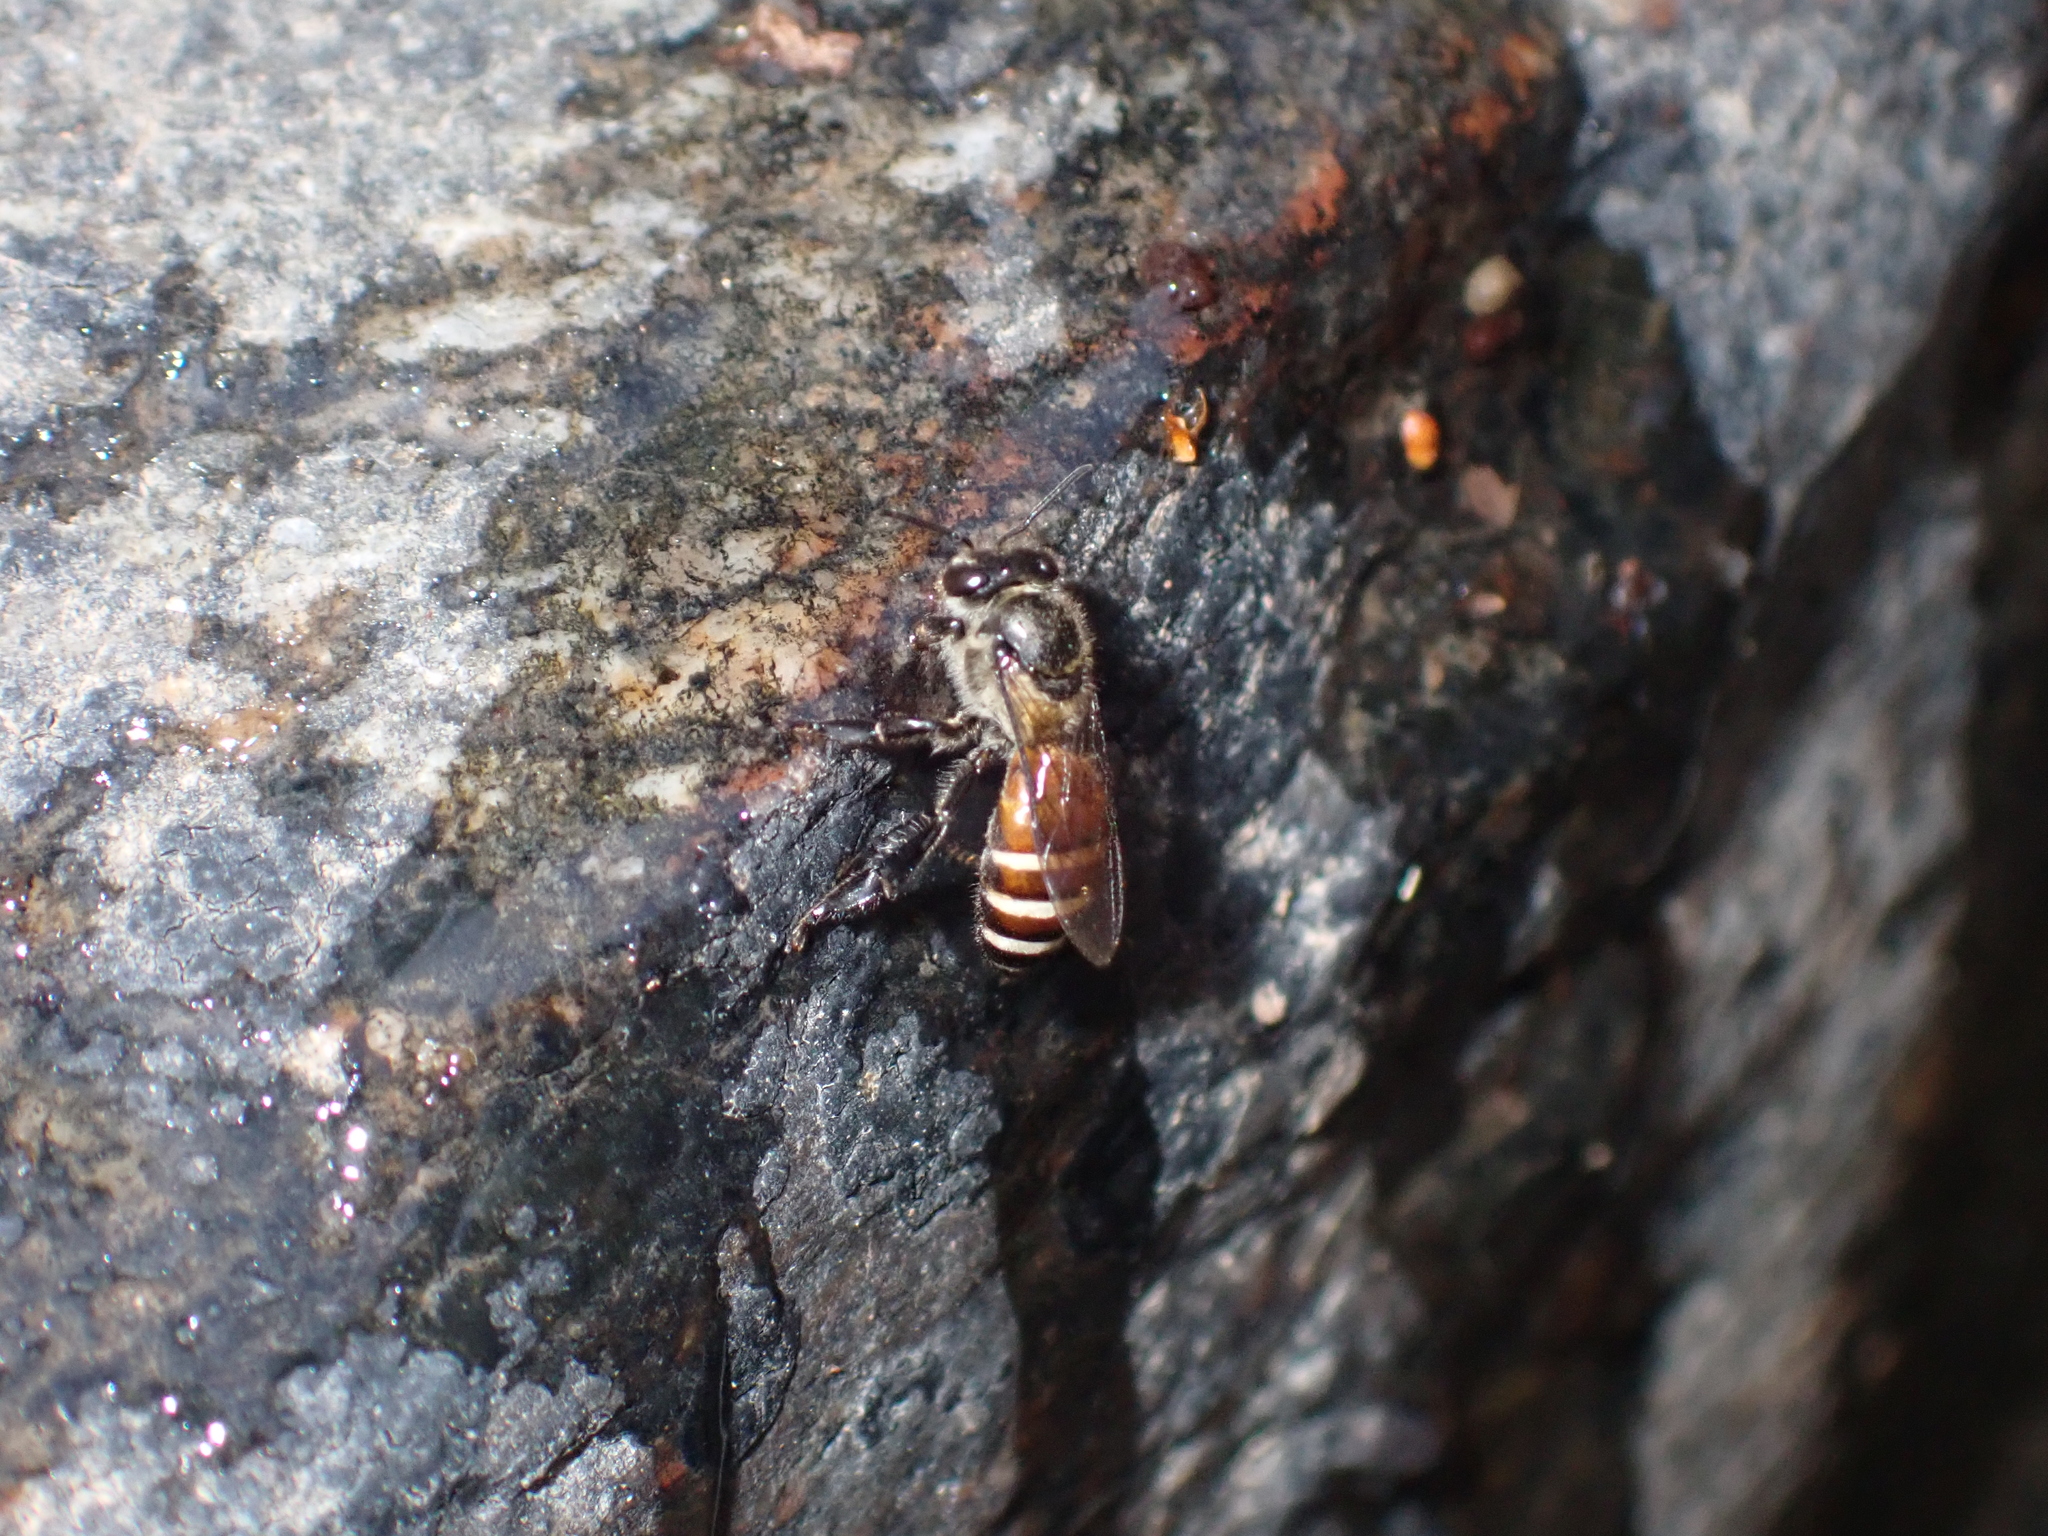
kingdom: Animalia
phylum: Arthropoda
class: Insecta
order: Hymenoptera
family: Apidae
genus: Apis
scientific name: Apis florea
